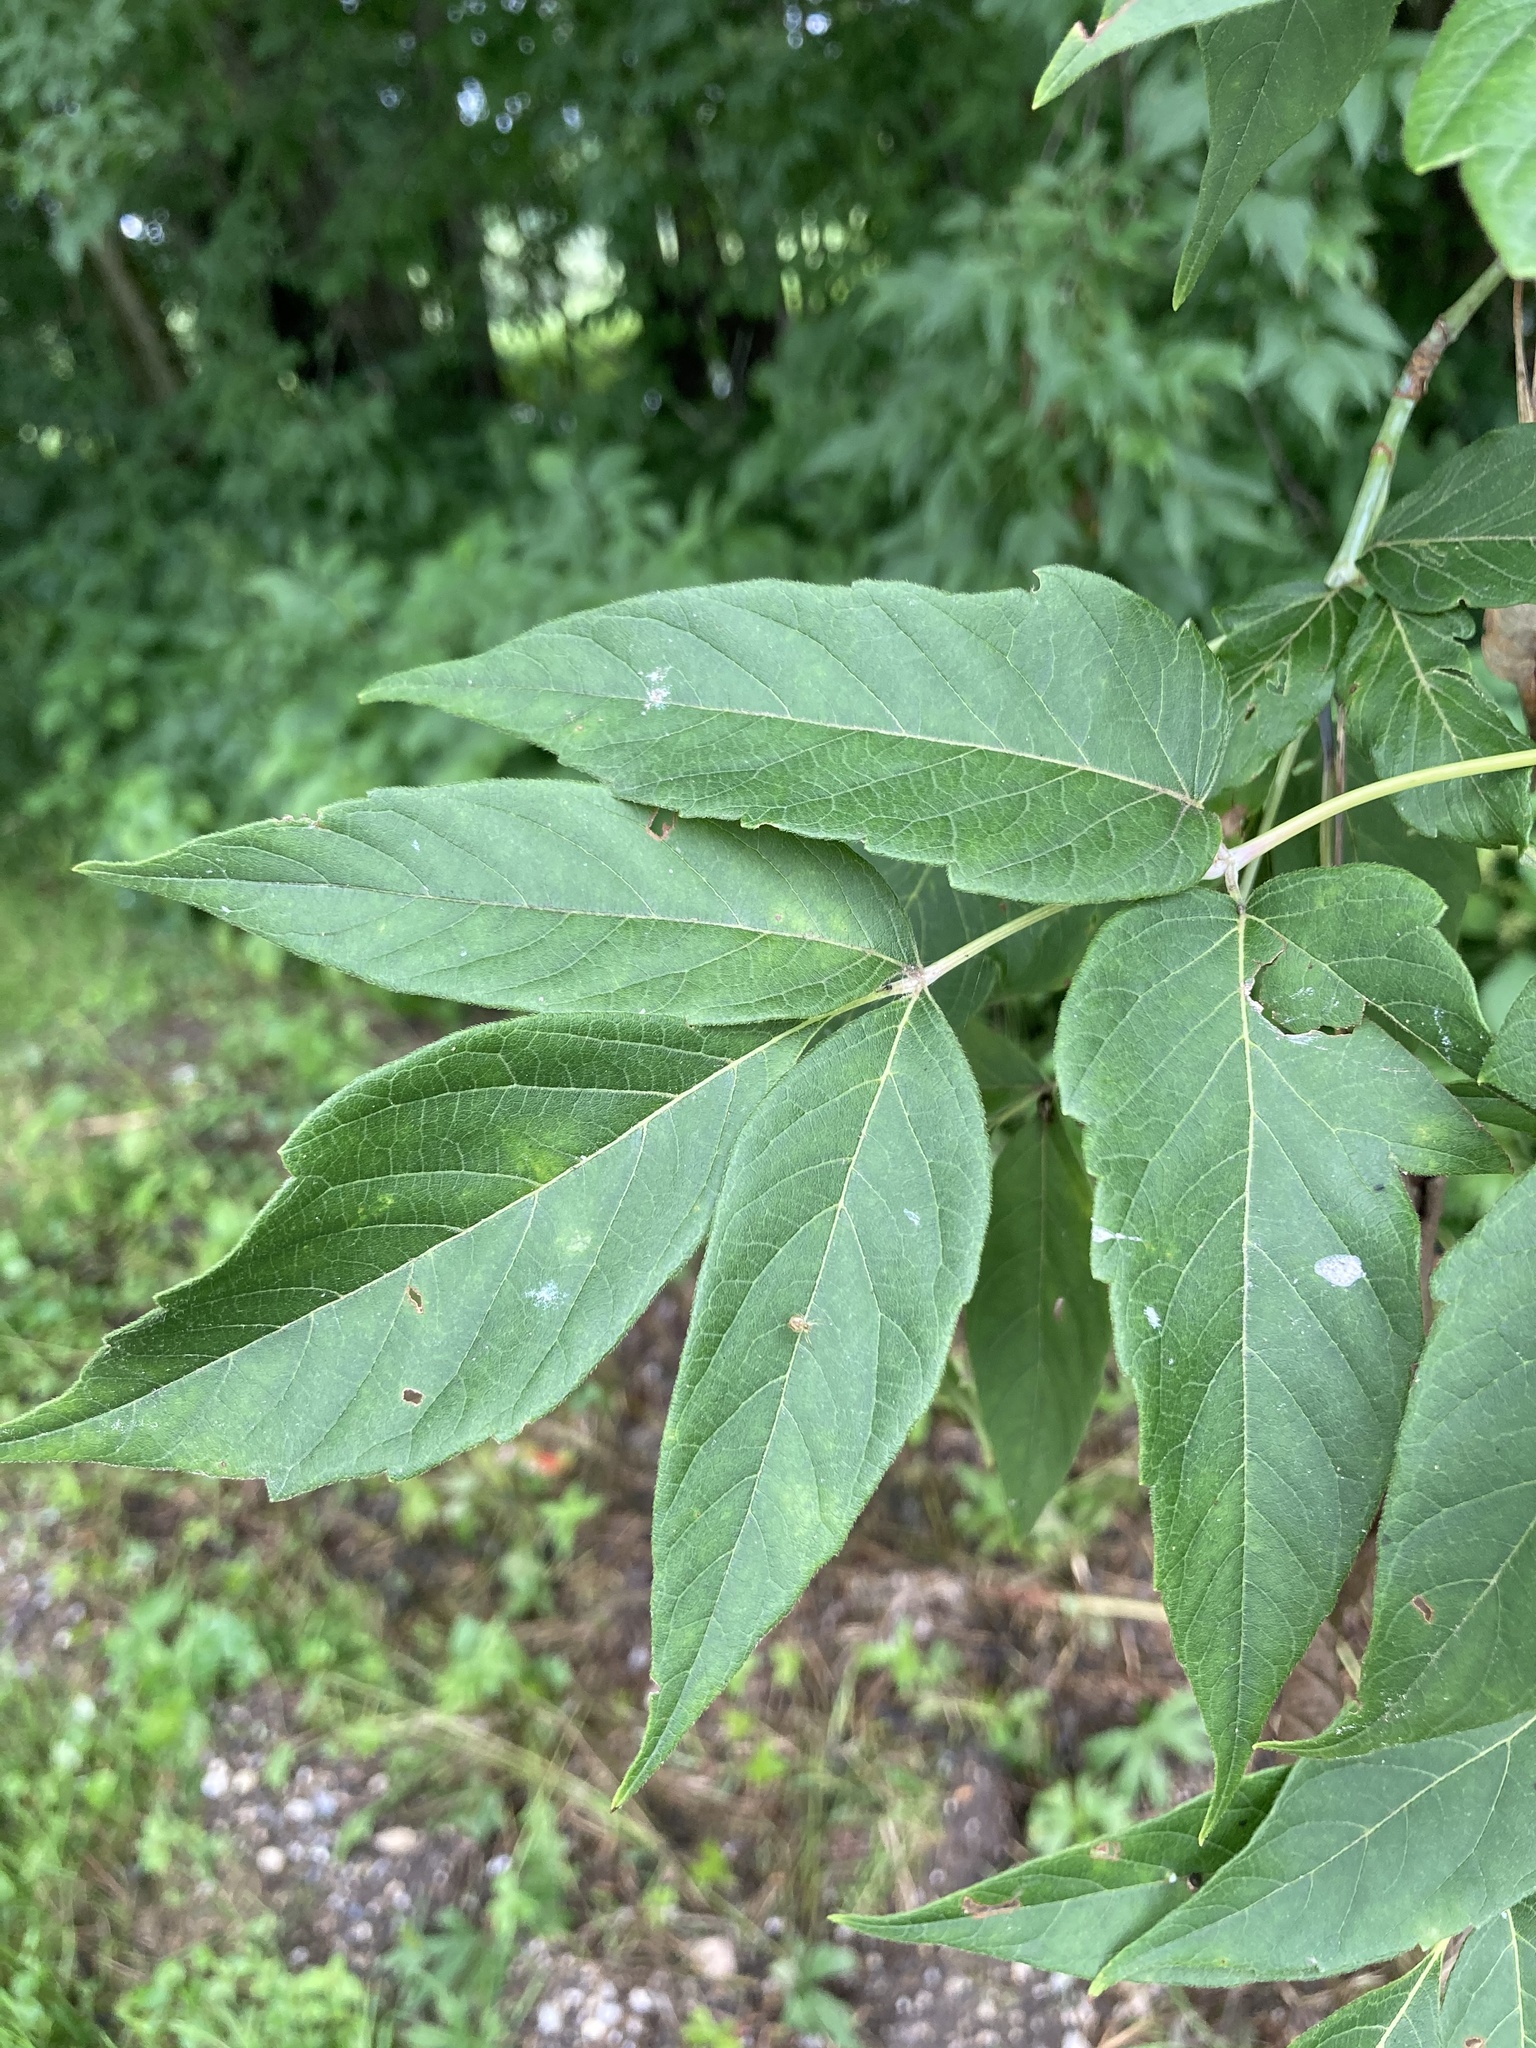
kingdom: Plantae
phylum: Tracheophyta
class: Magnoliopsida
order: Sapindales
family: Sapindaceae
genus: Acer
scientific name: Acer negundo
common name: Ashleaf maple
